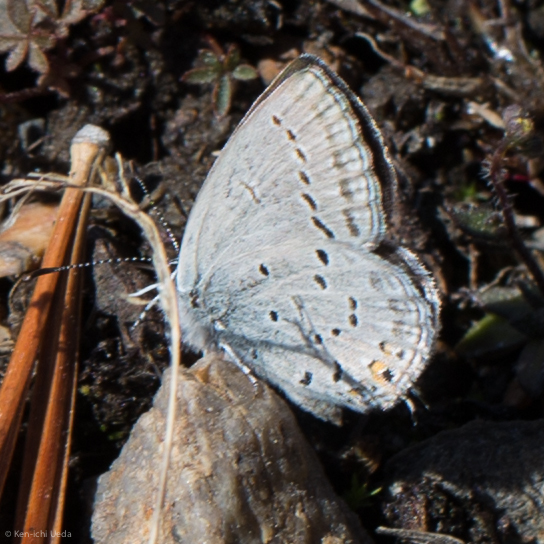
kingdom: Animalia
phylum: Arthropoda
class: Insecta
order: Lepidoptera
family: Lycaenidae
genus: Elkalyce
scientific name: Elkalyce amyntula
